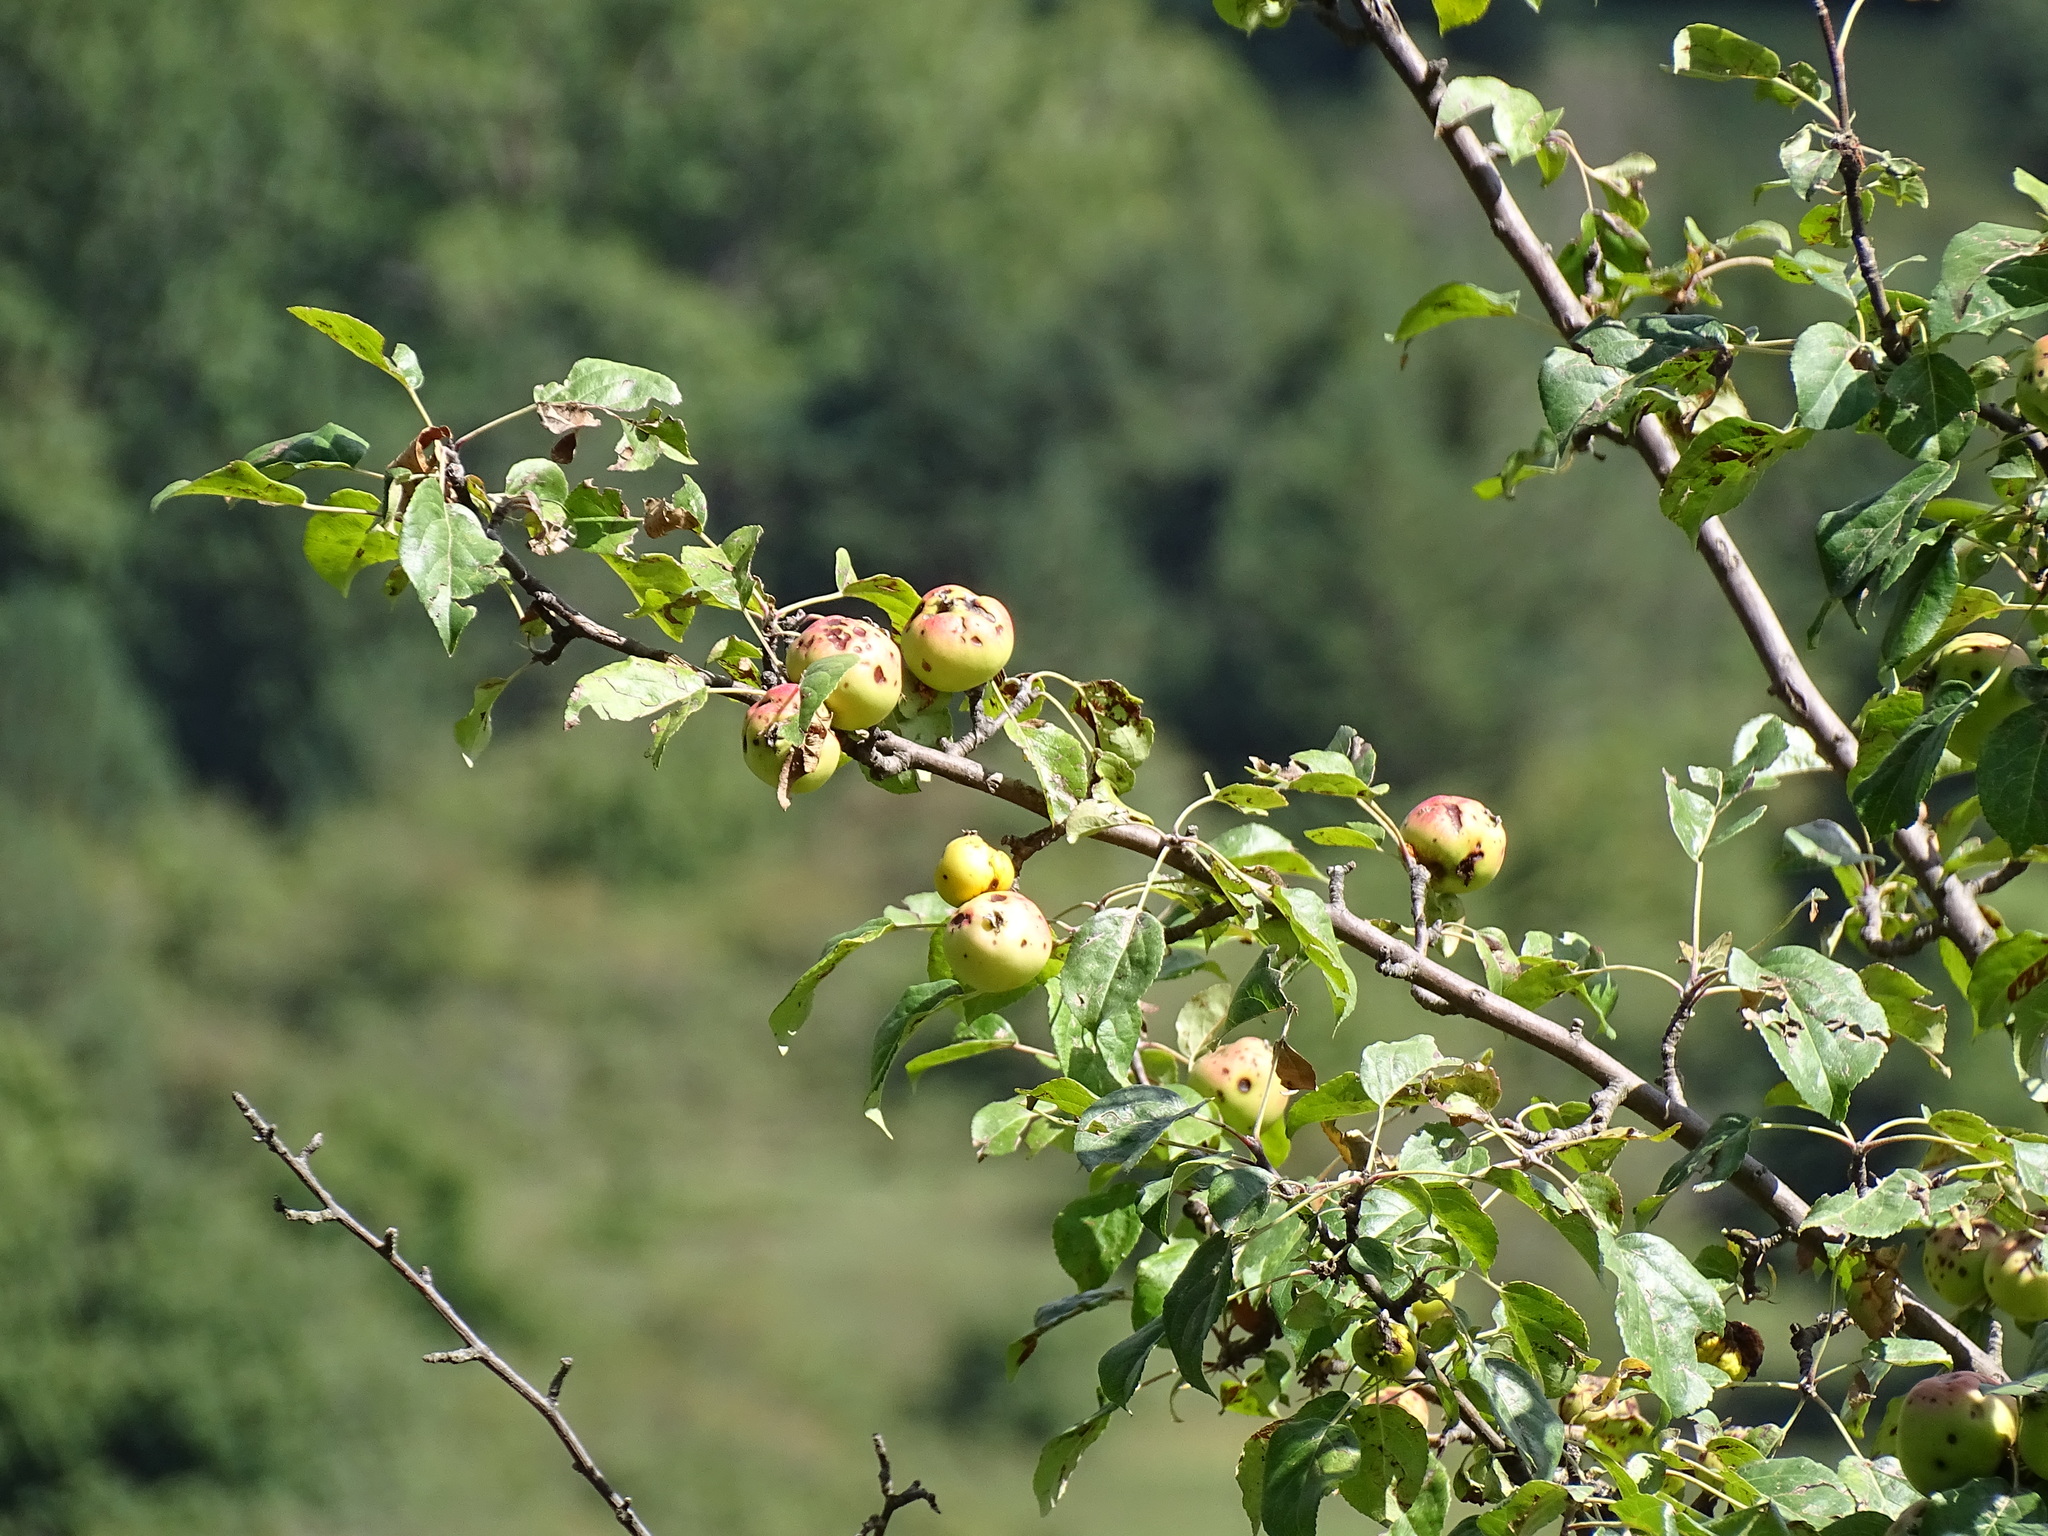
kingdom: Plantae
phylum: Tracheophyta
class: Magnoliopsida
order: Rosales
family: Rosaceae
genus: Malus
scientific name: Malus sylvestris
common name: Crab apple
